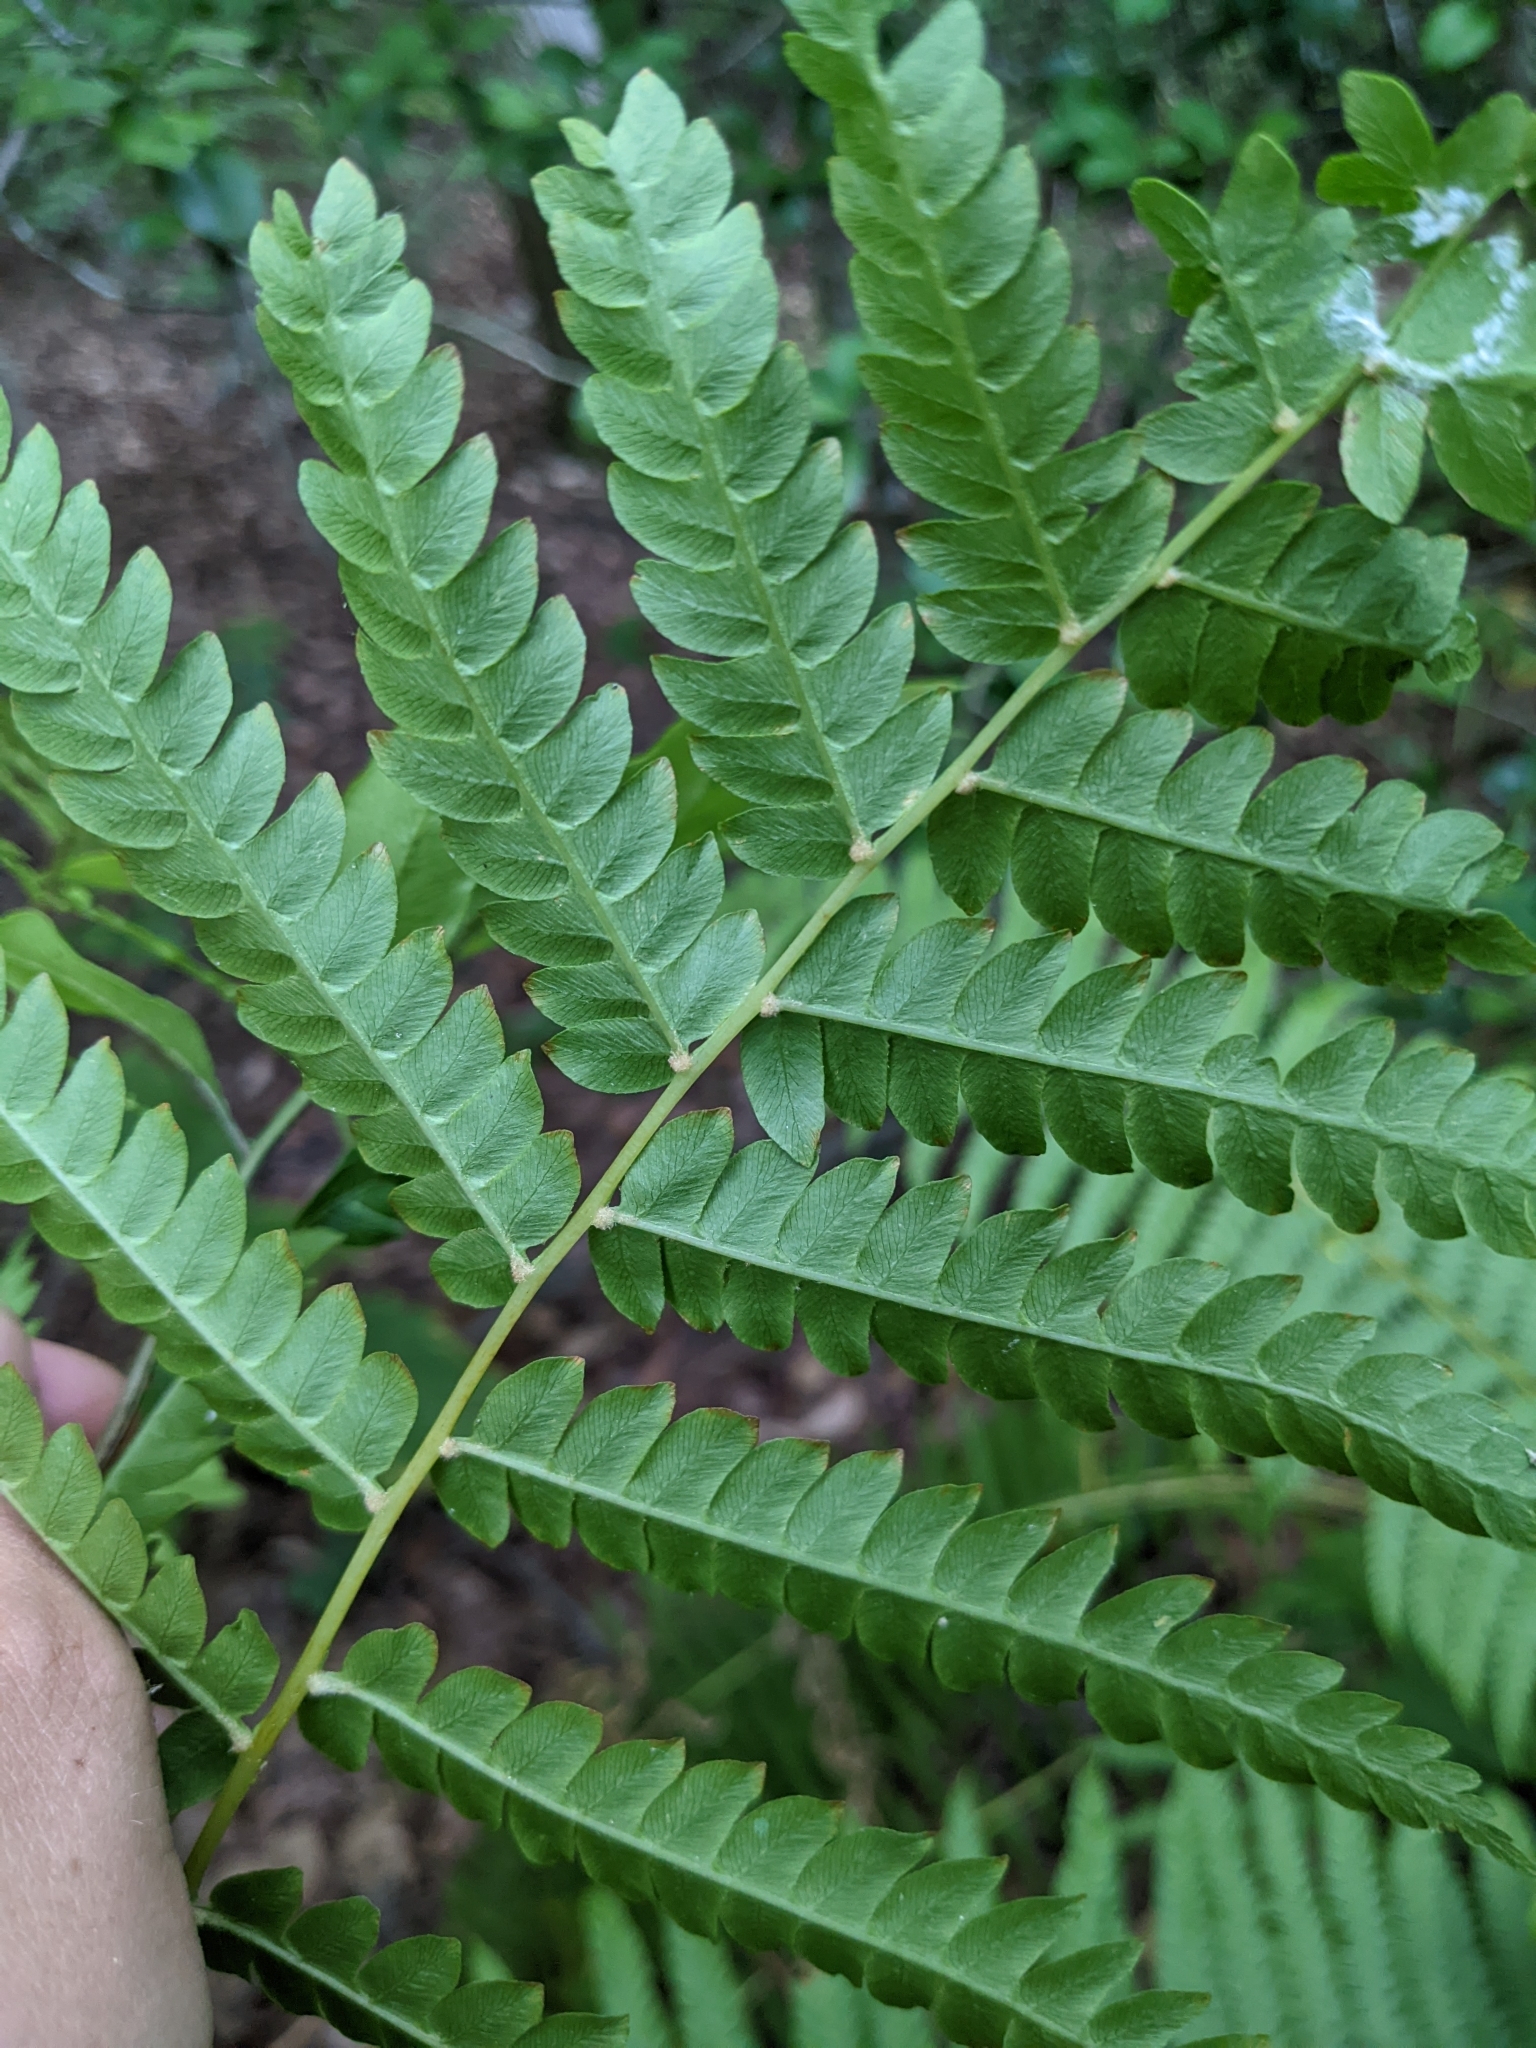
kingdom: Plantae
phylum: Tracheophyta
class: Polypodiopsida
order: Osmundales
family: Osmundaceae
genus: Osmundastrum
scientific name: Osmundastrum cinnamomeum
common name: Cinnamon fern
